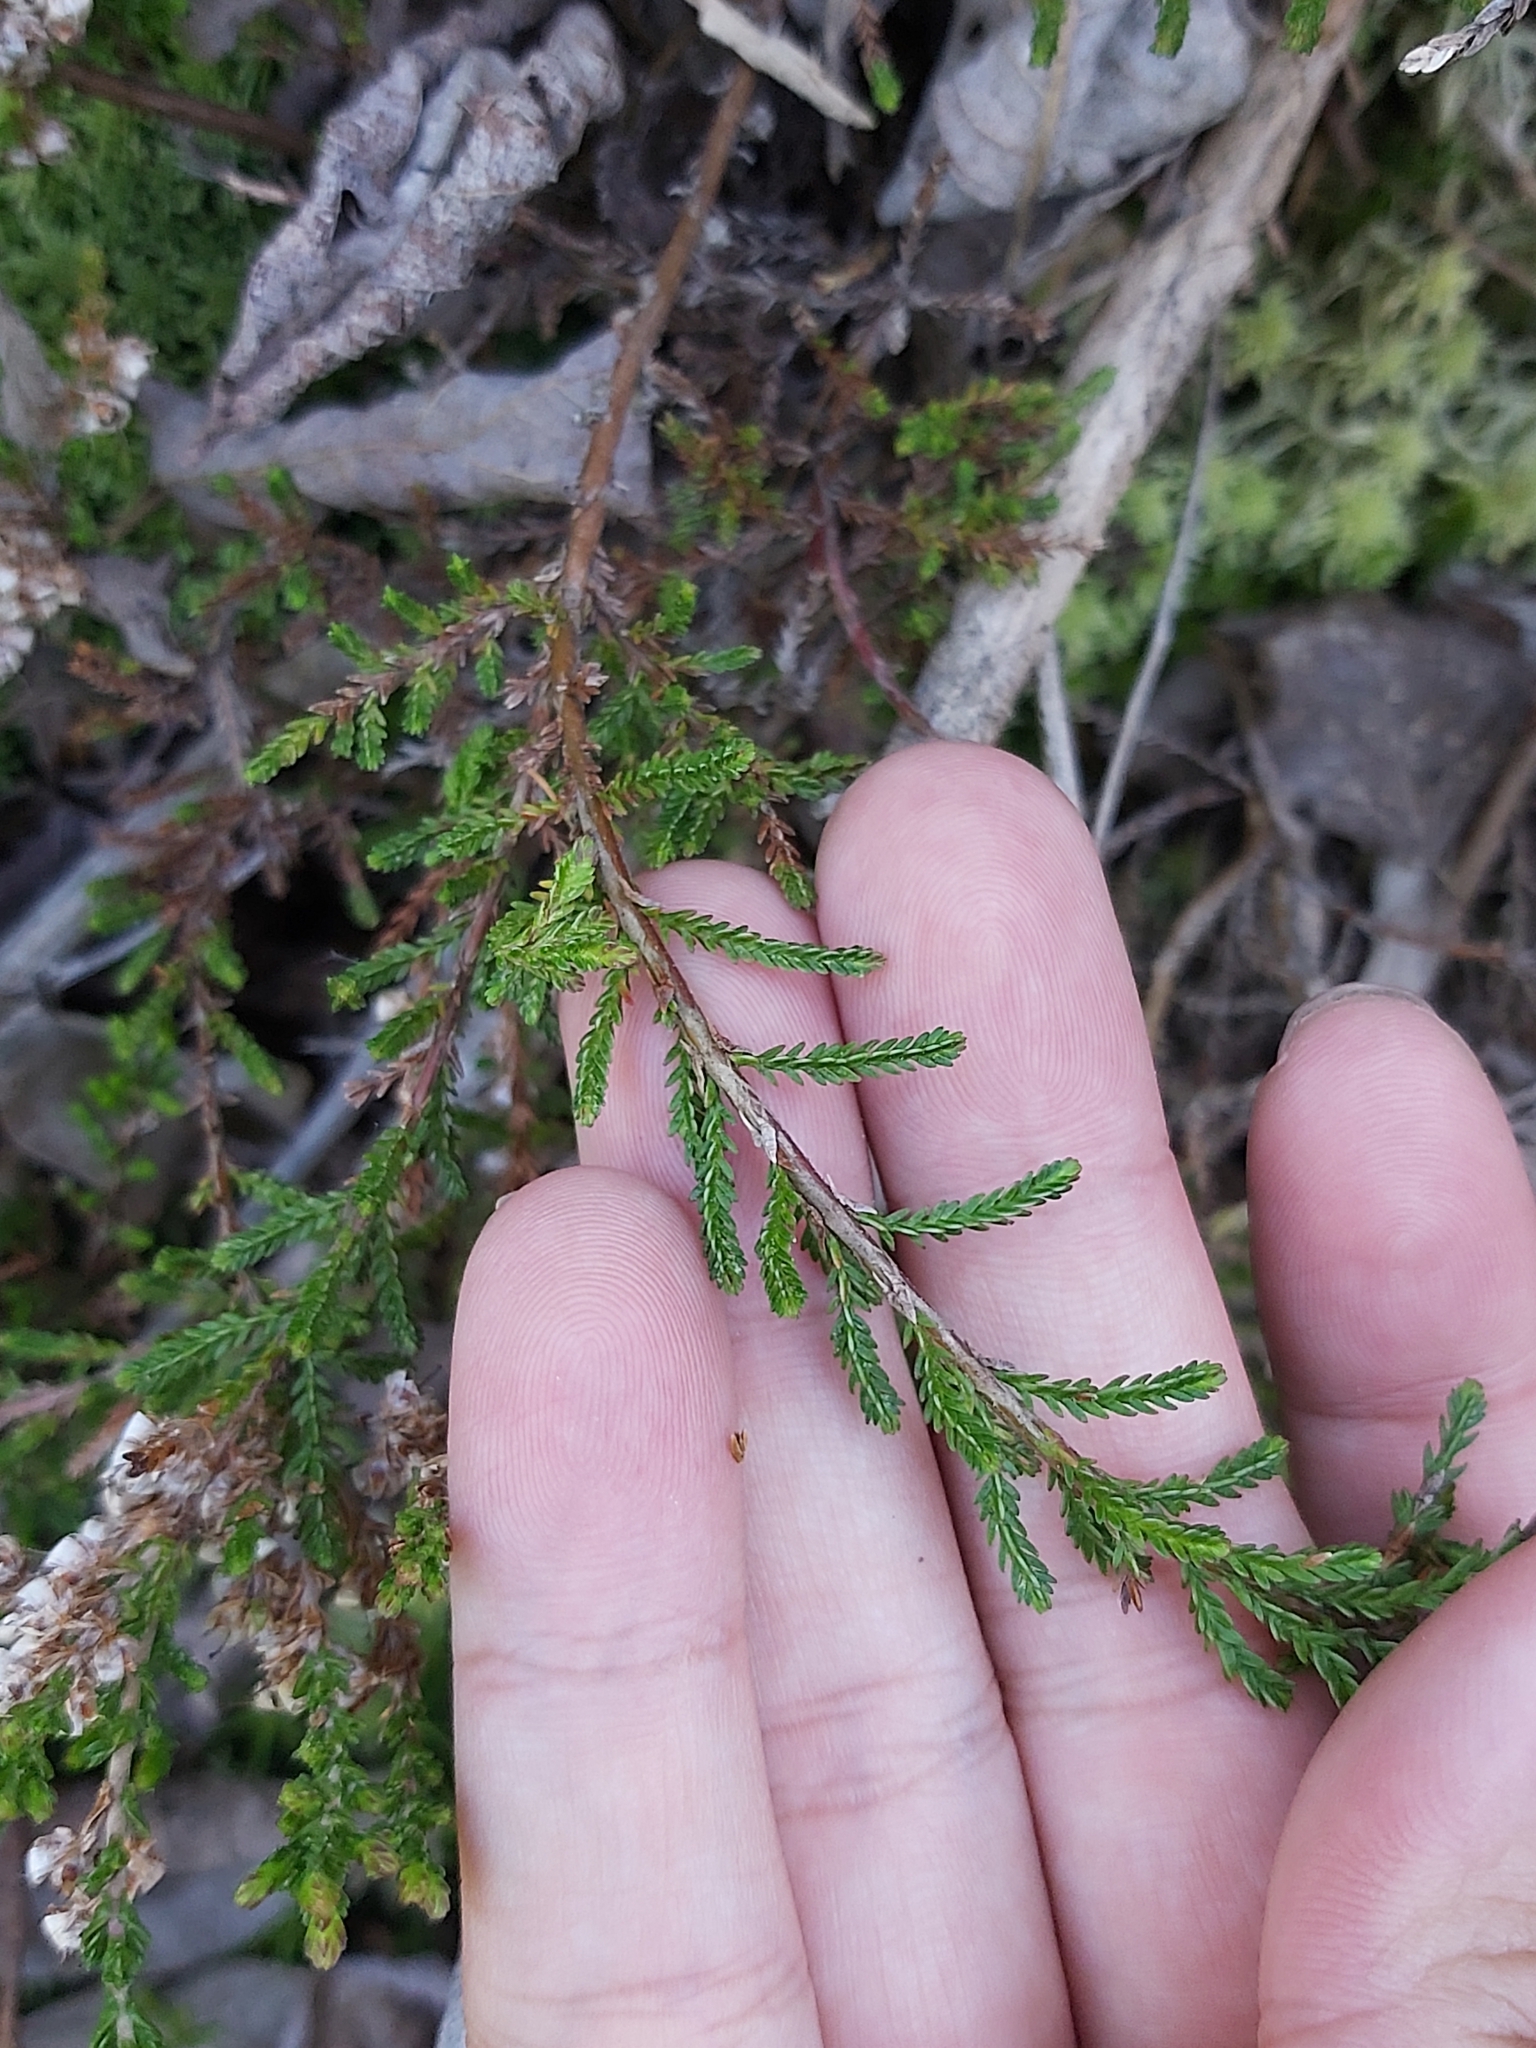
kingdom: Plantae
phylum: Tracheophyta
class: Magnoliopsida
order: Ericales
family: Ericaceae
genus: Calluna
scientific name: Calluna vulgaris
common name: Heather
